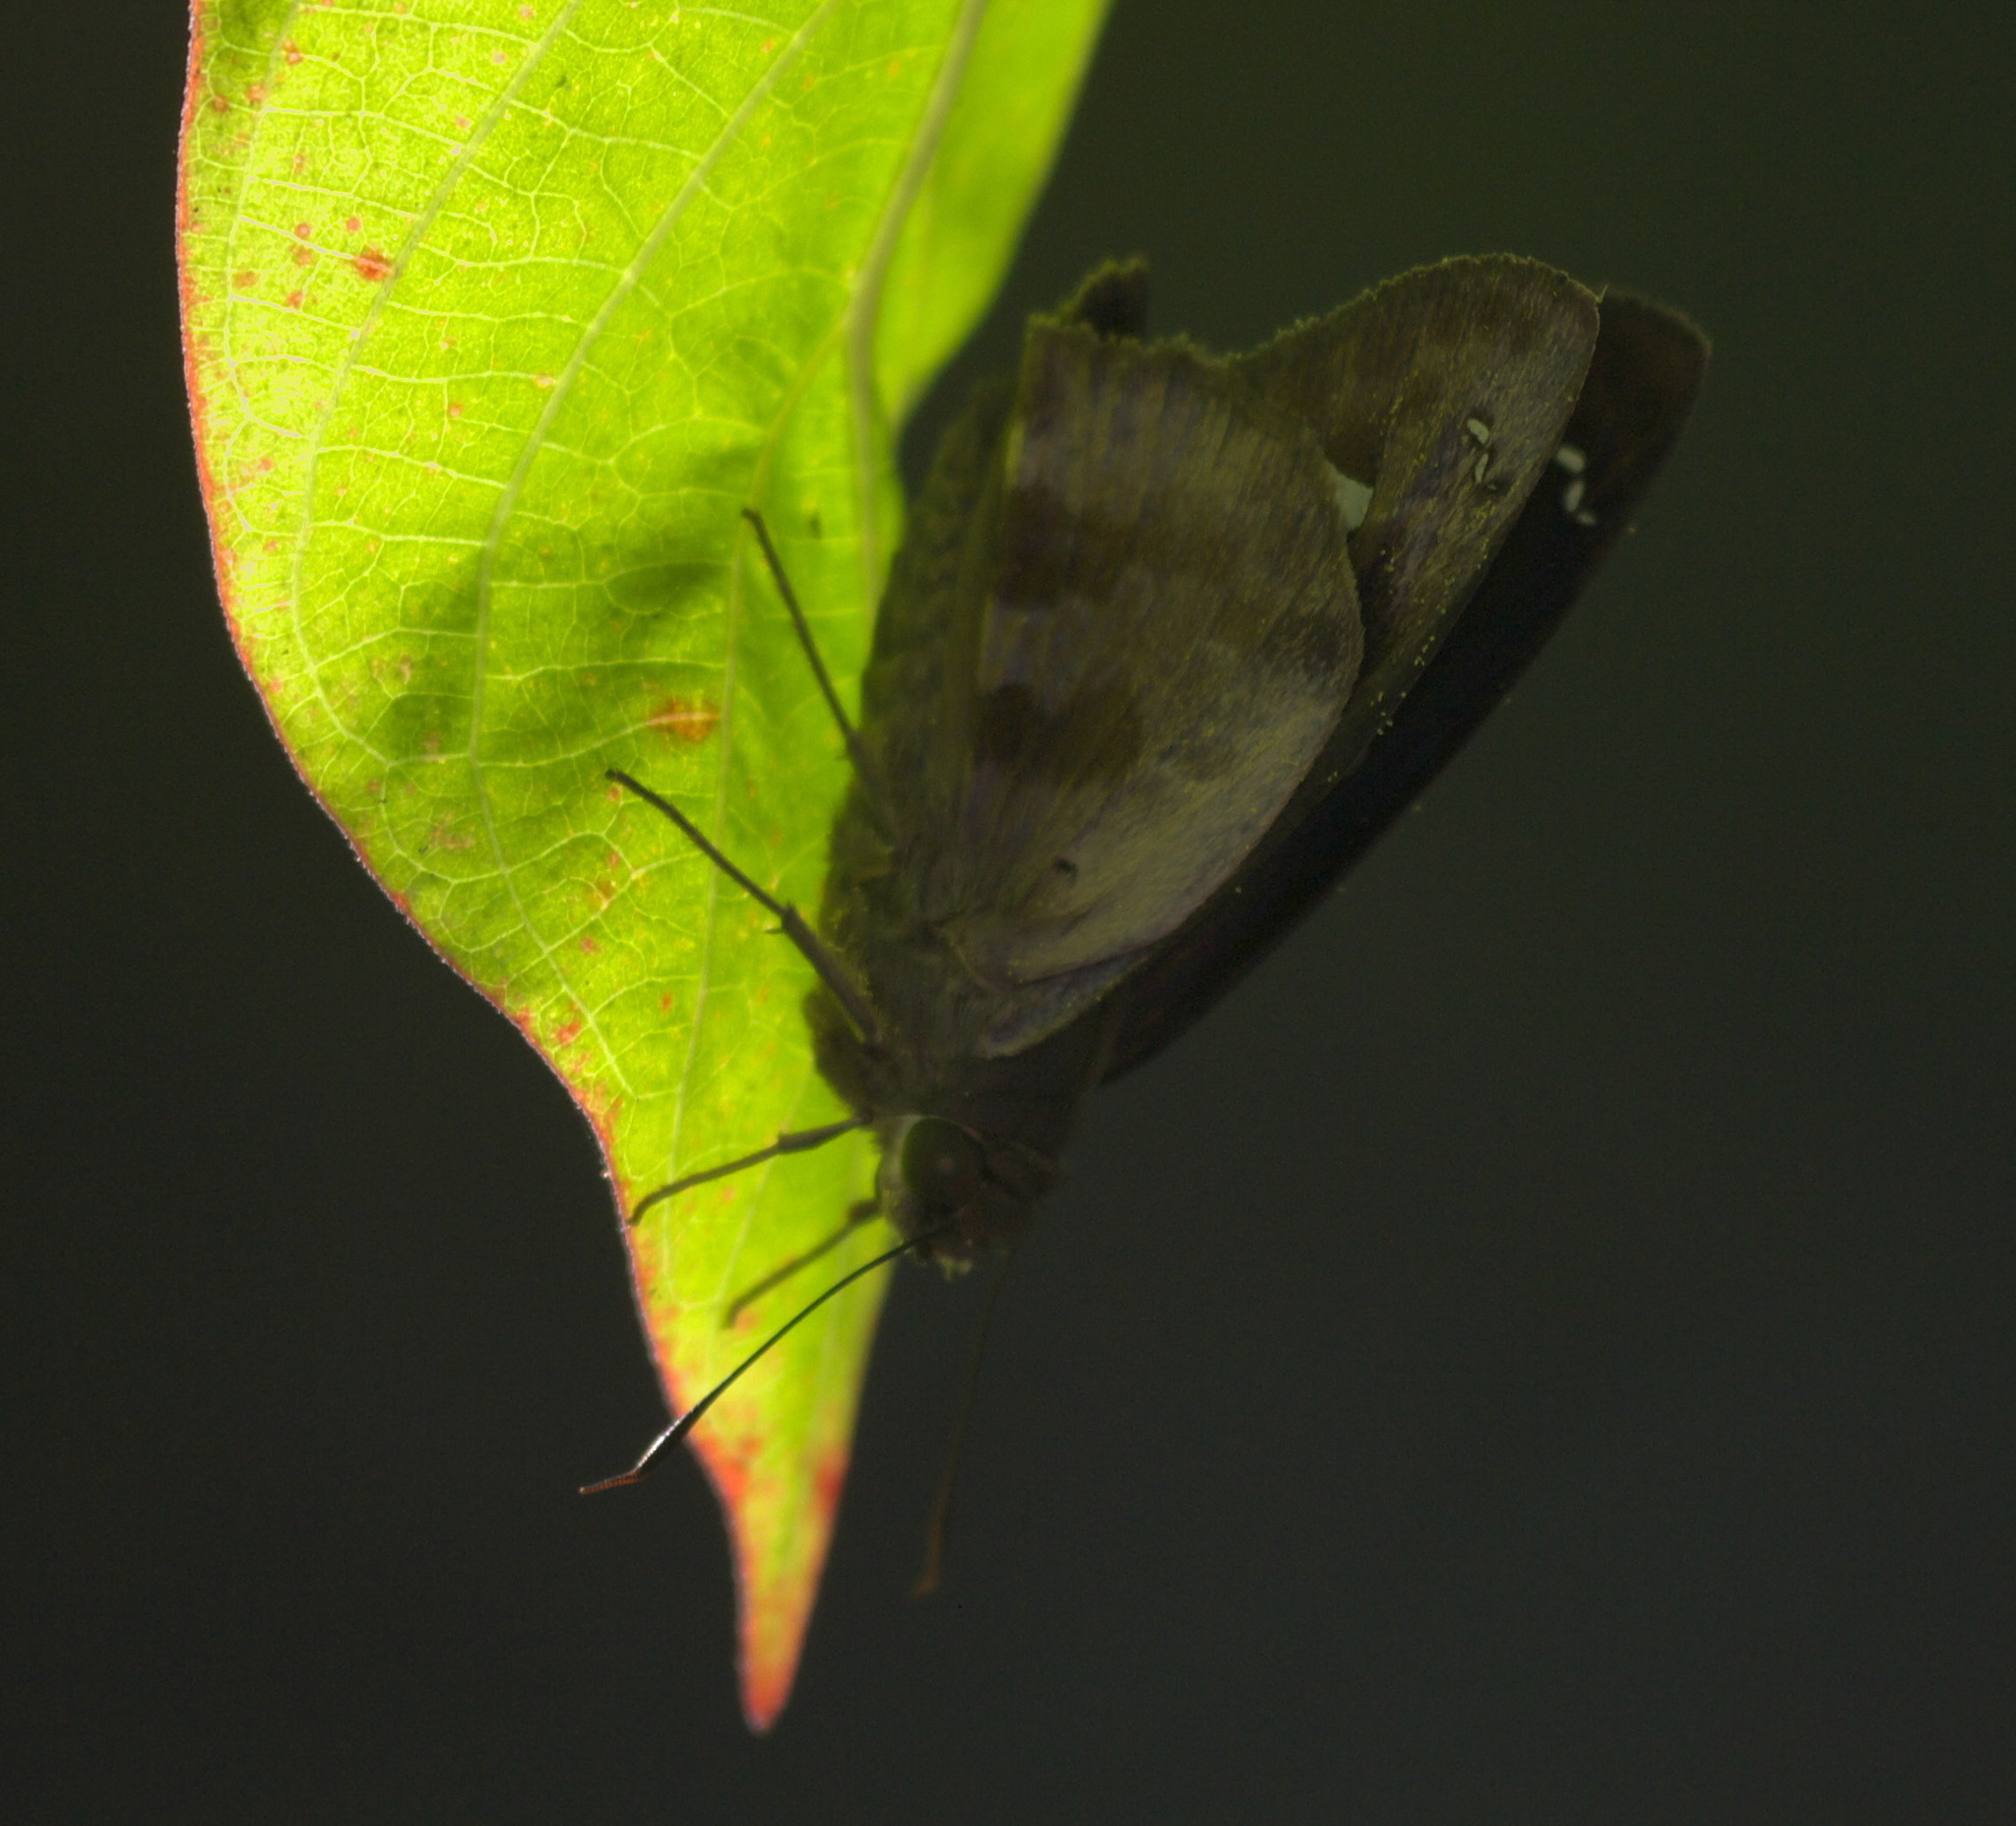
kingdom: Animalia
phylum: Arthropoda
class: Insecta
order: Lepidoptera
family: Hesperiidae
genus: Polygonus
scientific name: Polygonus leo
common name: Hammoch skipper
